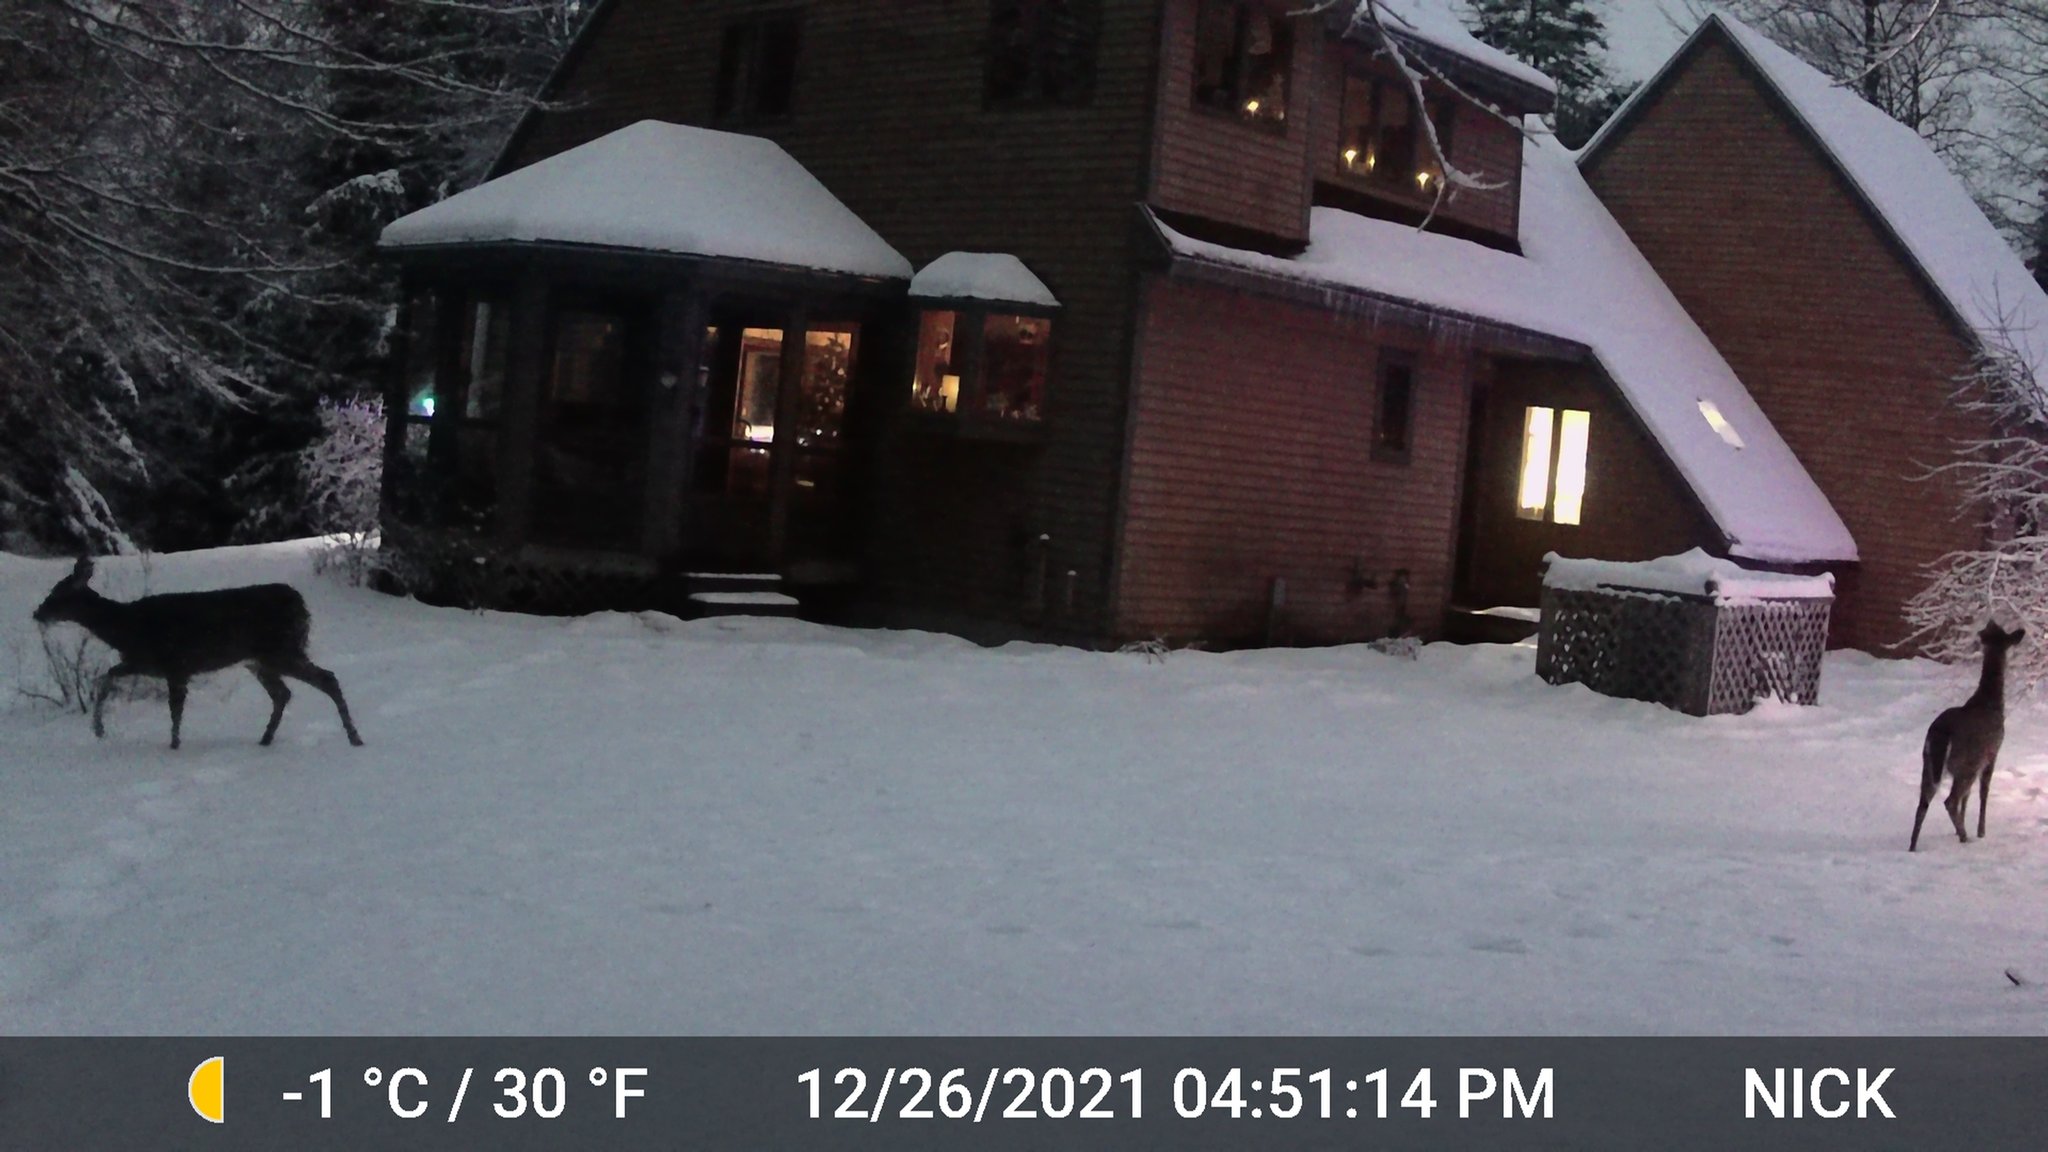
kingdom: Animalia
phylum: Chordata
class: Mammalia
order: Artiodactyla
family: Cervidae
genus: Odocoileus
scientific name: Odocoileus virginianus
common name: White-tailed deer
